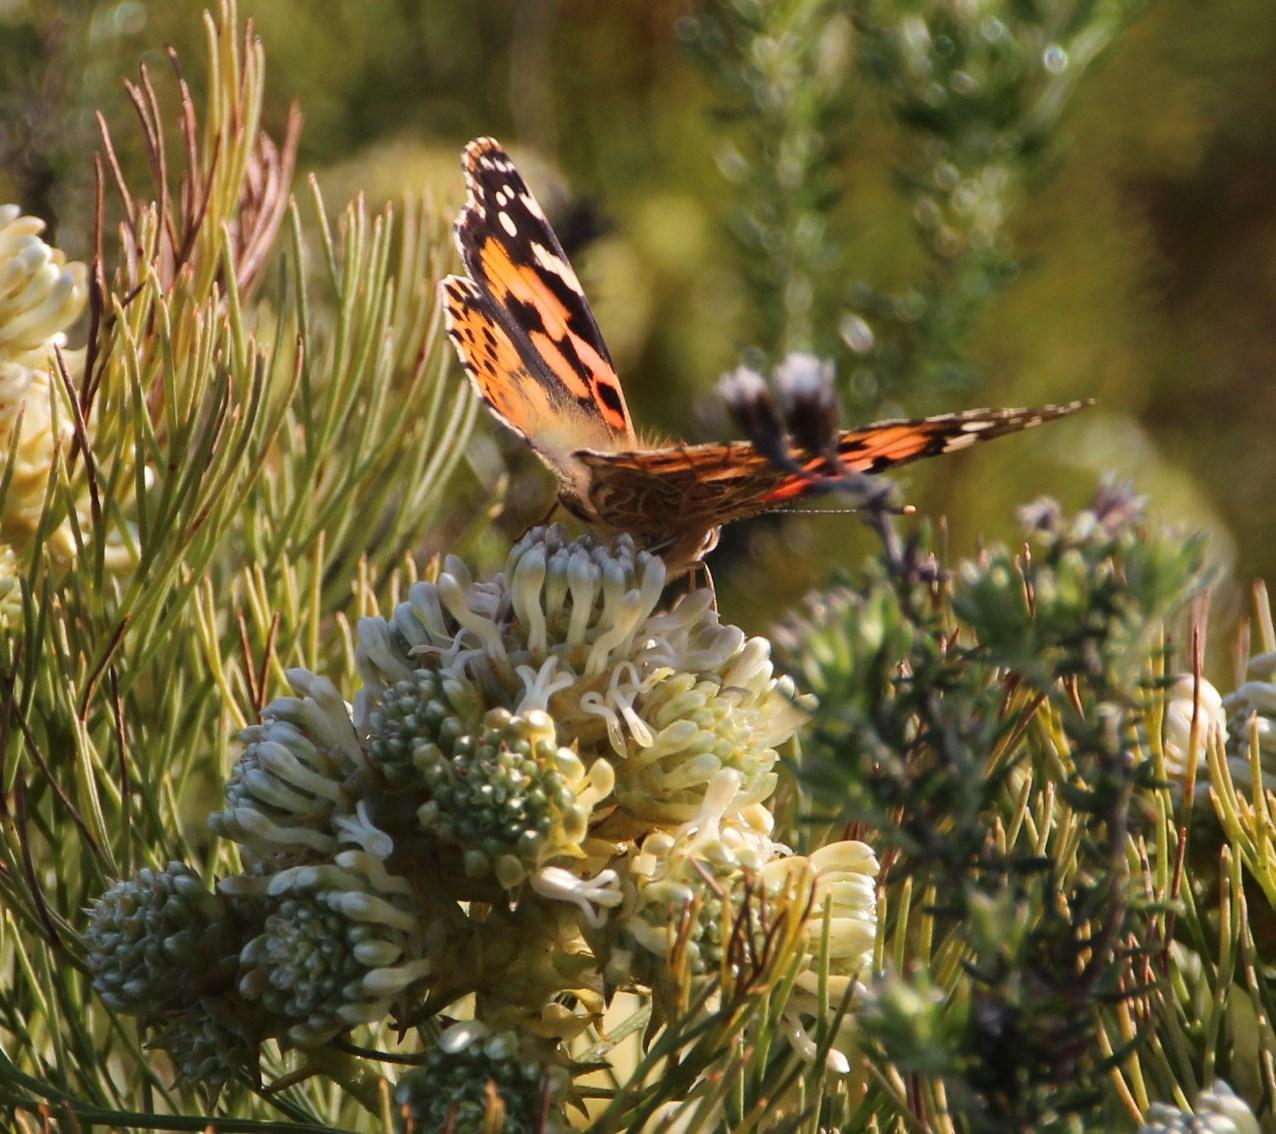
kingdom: Animalia
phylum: Arthropoda
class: Insecta
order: Lepidoptera
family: Nymphalidae
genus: Vanessa
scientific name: Vanessa cardui
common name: Painted lady
